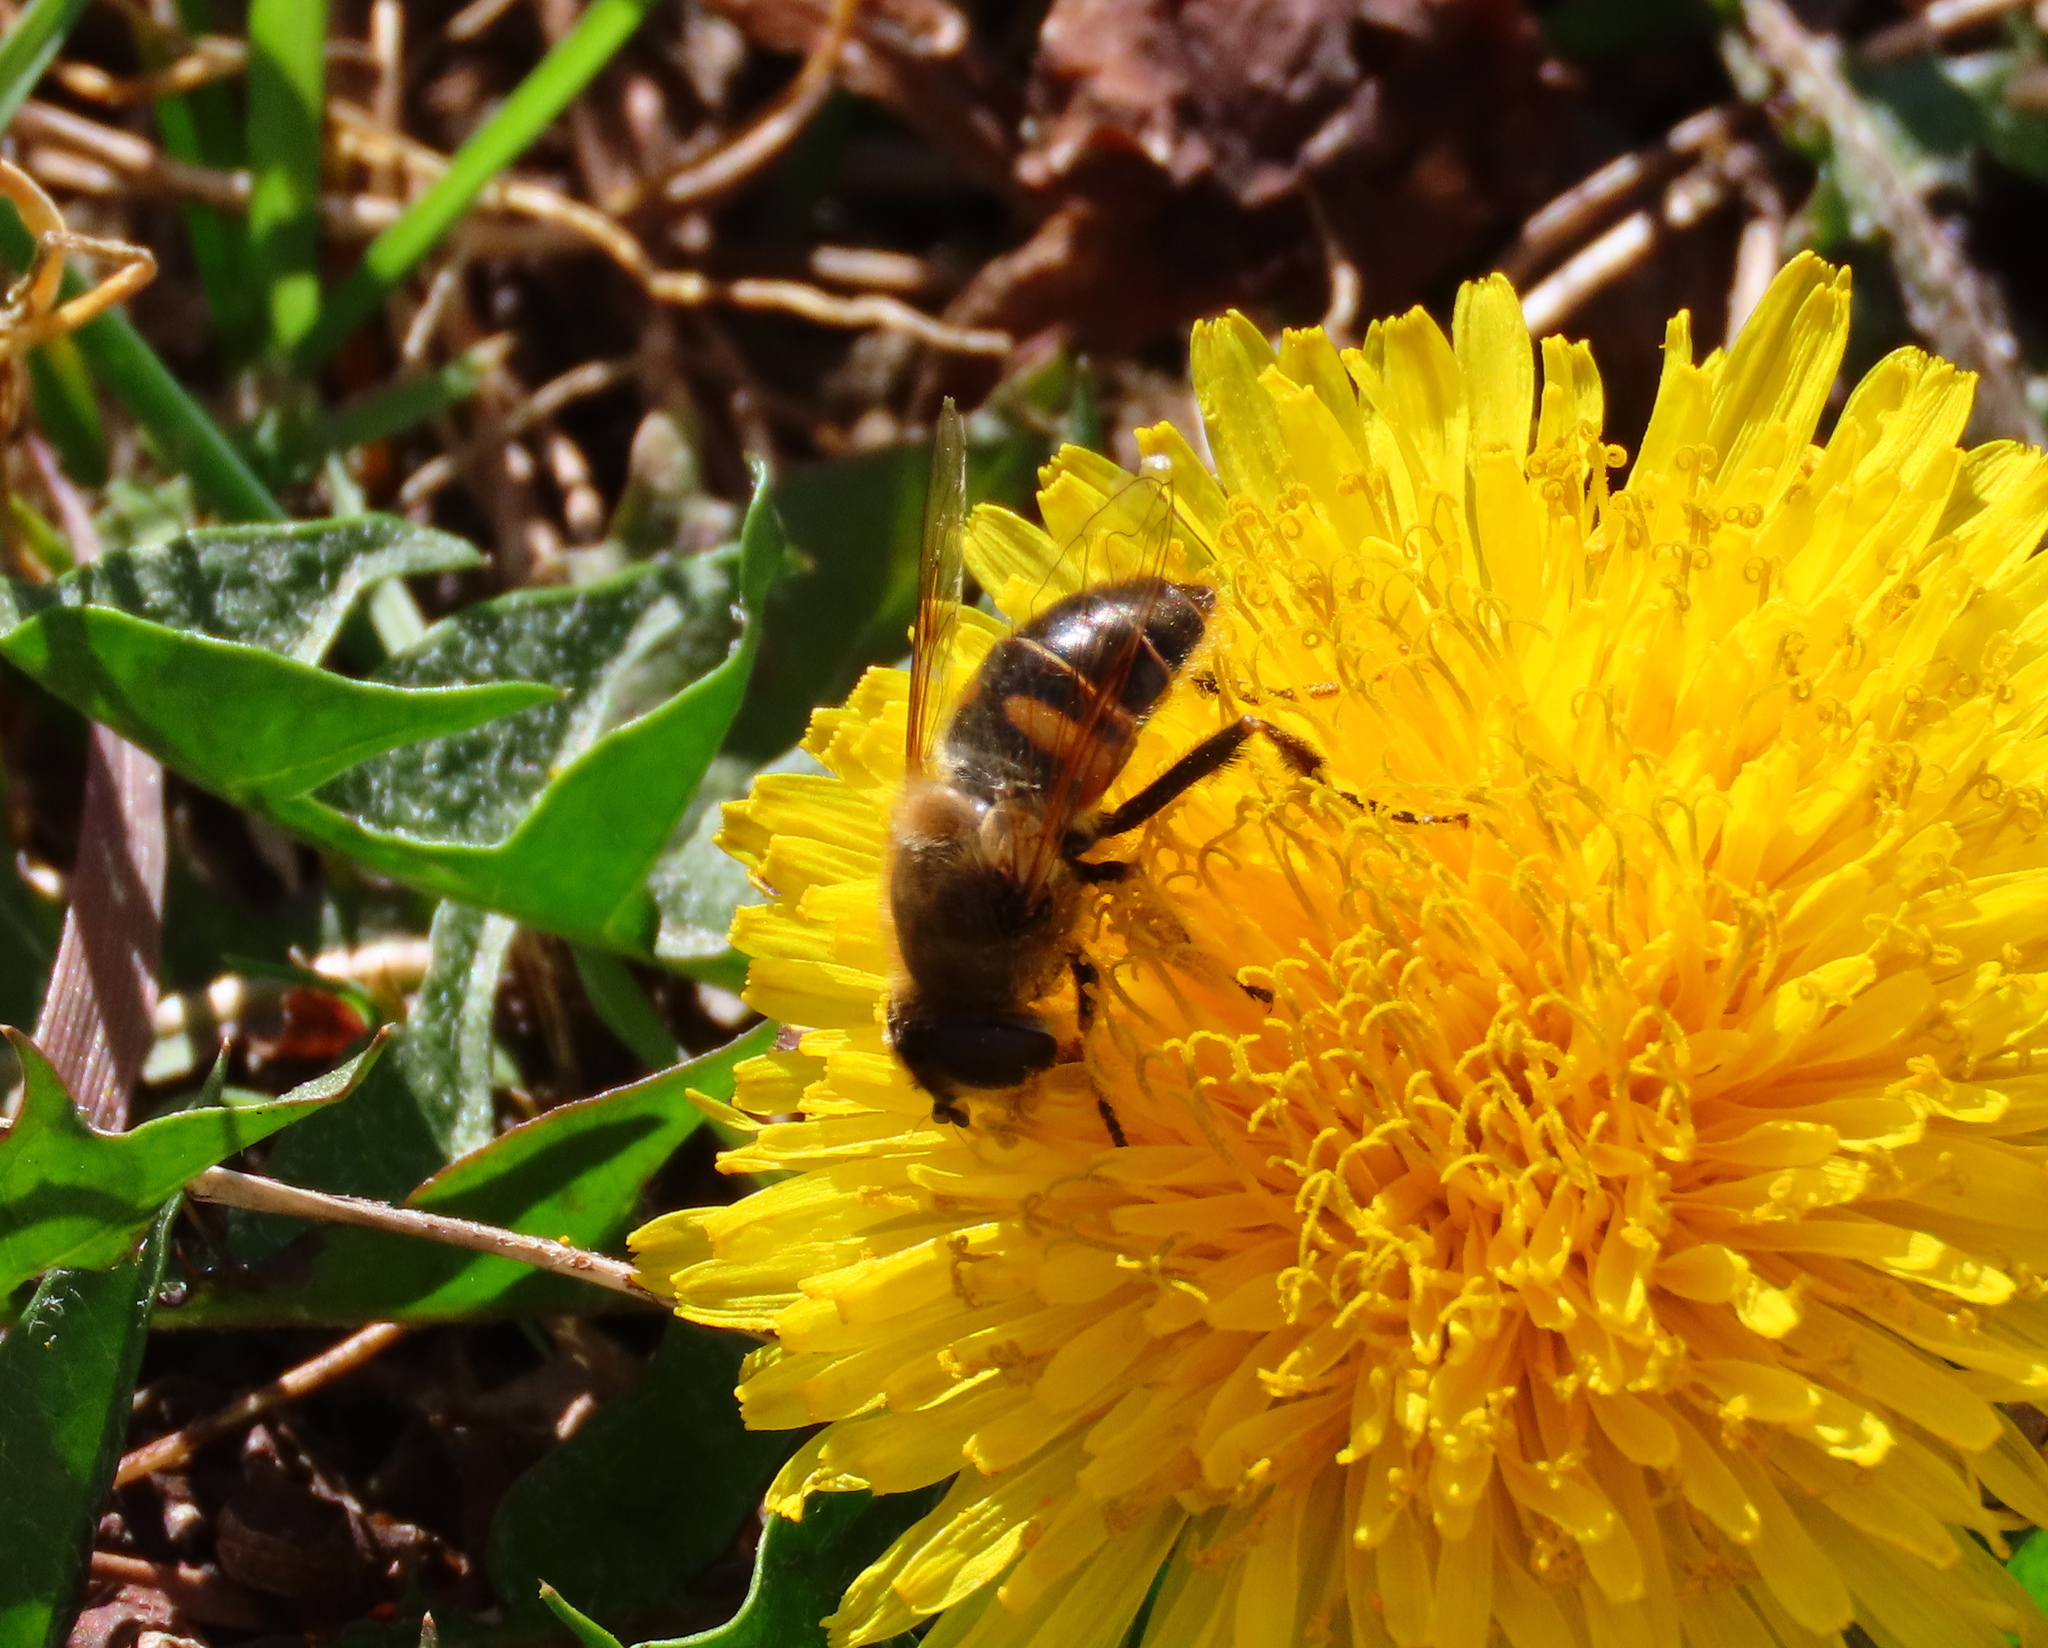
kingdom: Animalia
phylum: Arthropoda
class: Insecta
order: Diptera
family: Syrphidae
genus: Eristalis
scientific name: Eristalis tenax
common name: Drone fly
